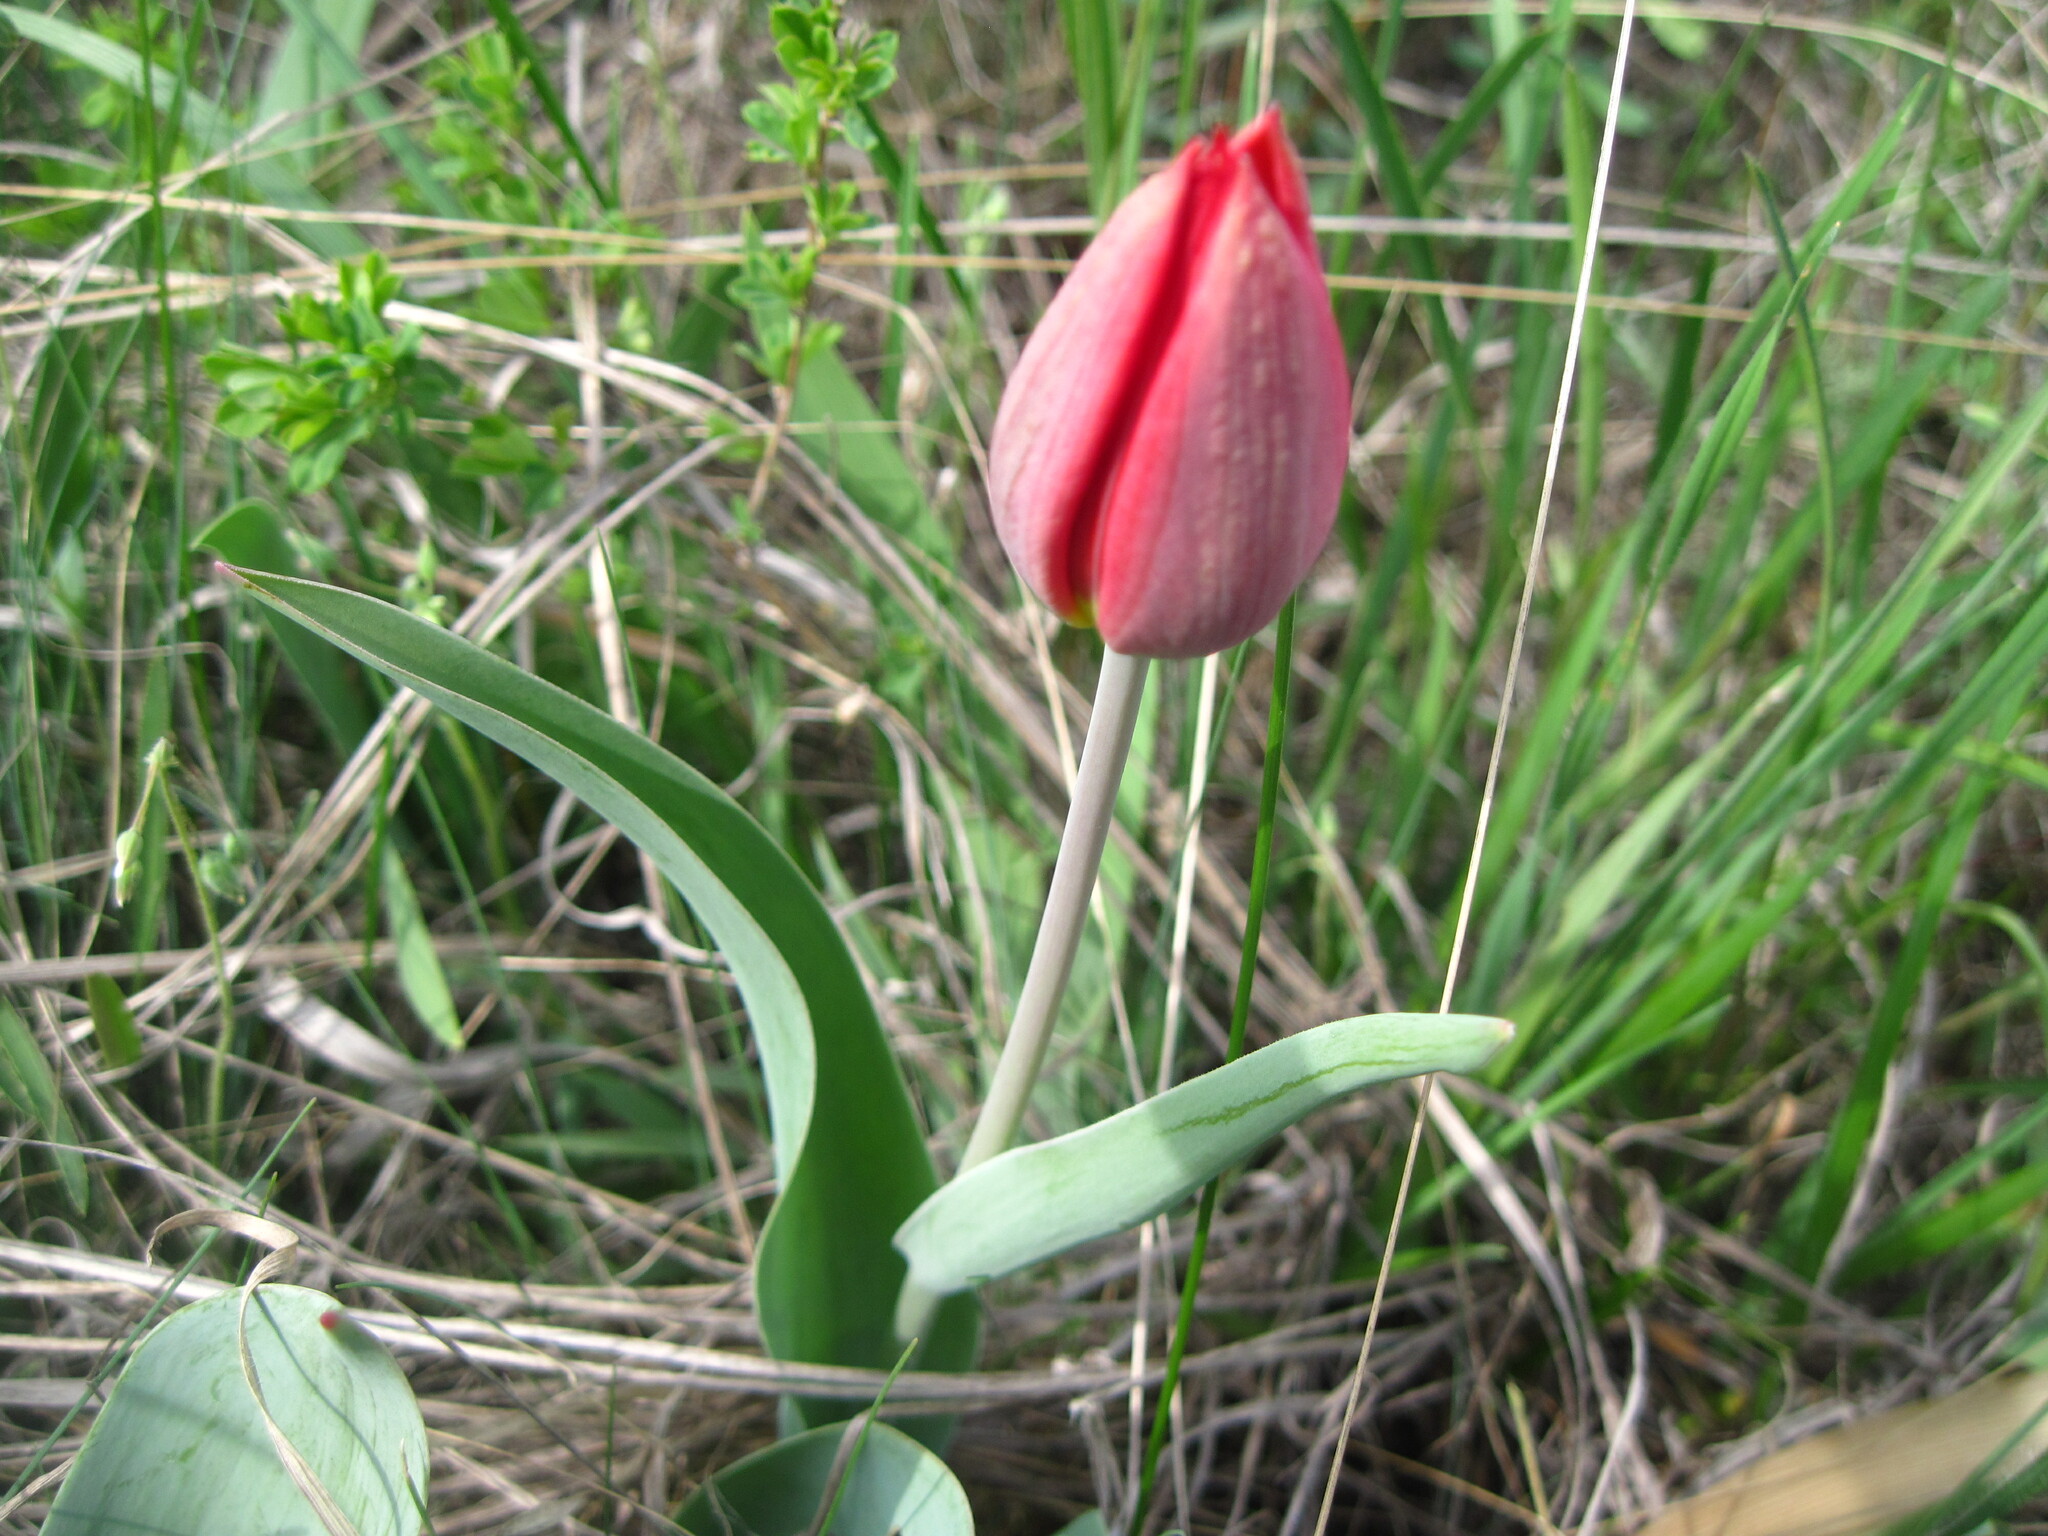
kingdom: Plantae
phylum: Tracheophyta
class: Liliopsida
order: Liliales
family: Liliaceae
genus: Tulipa
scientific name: Tulipa suaveolens
